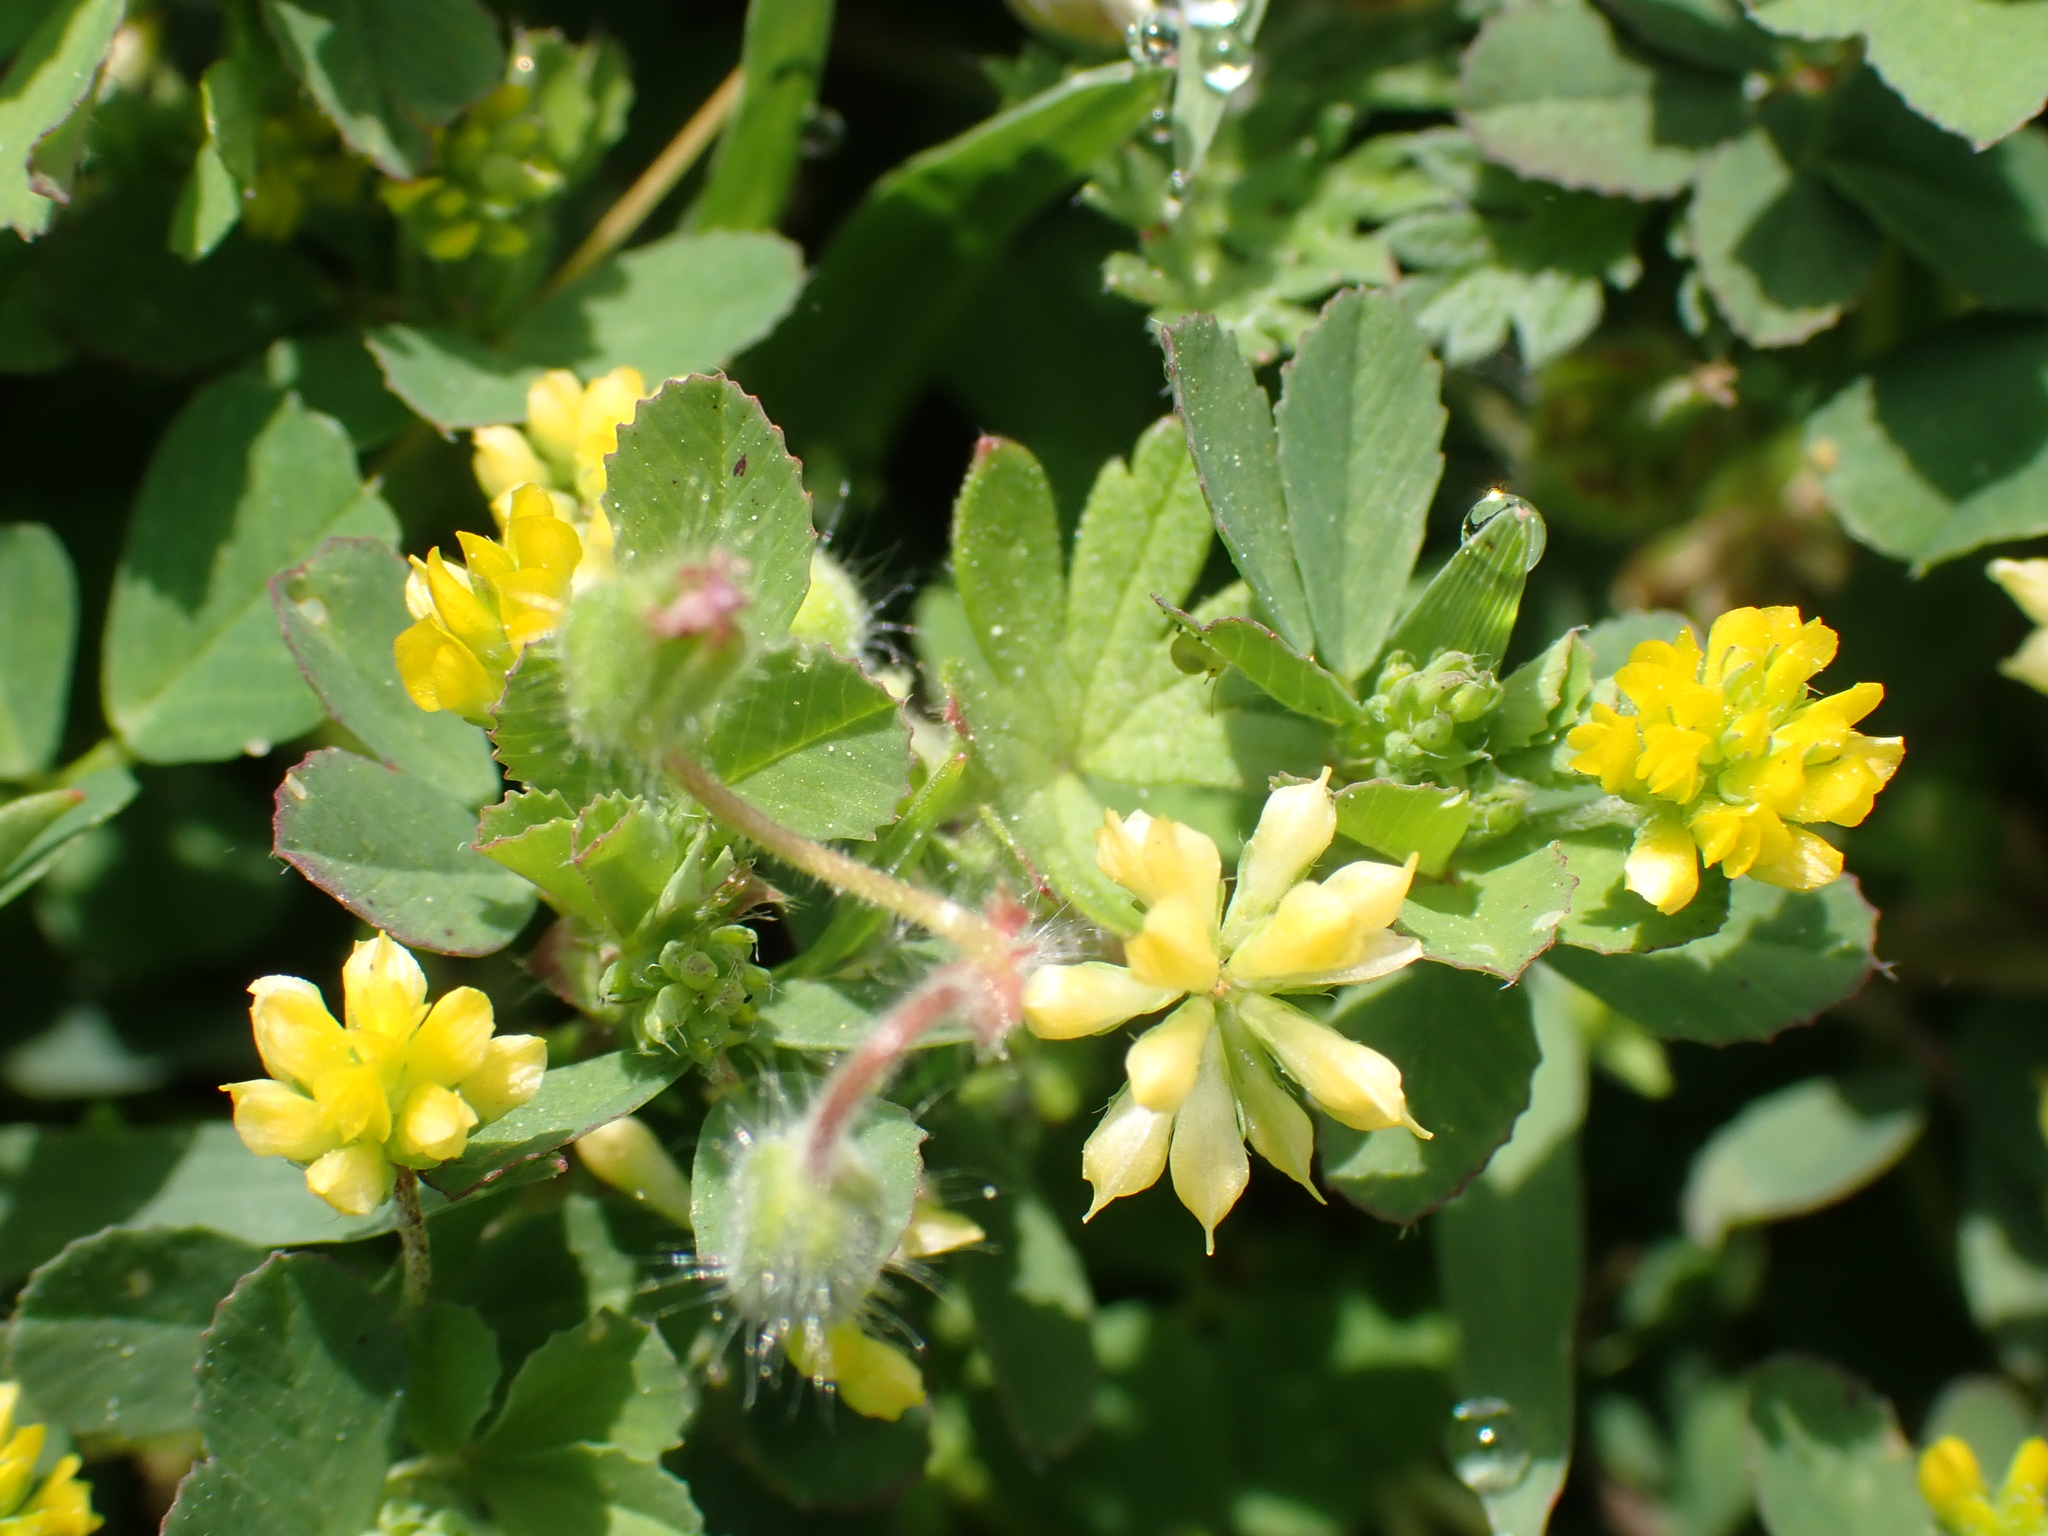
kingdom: Plantae
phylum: Tracheophyta
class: Magnoliopsida
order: Fabales
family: Fabaceae
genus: Trifolium
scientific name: Trifolium dubium
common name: Suckling clover
